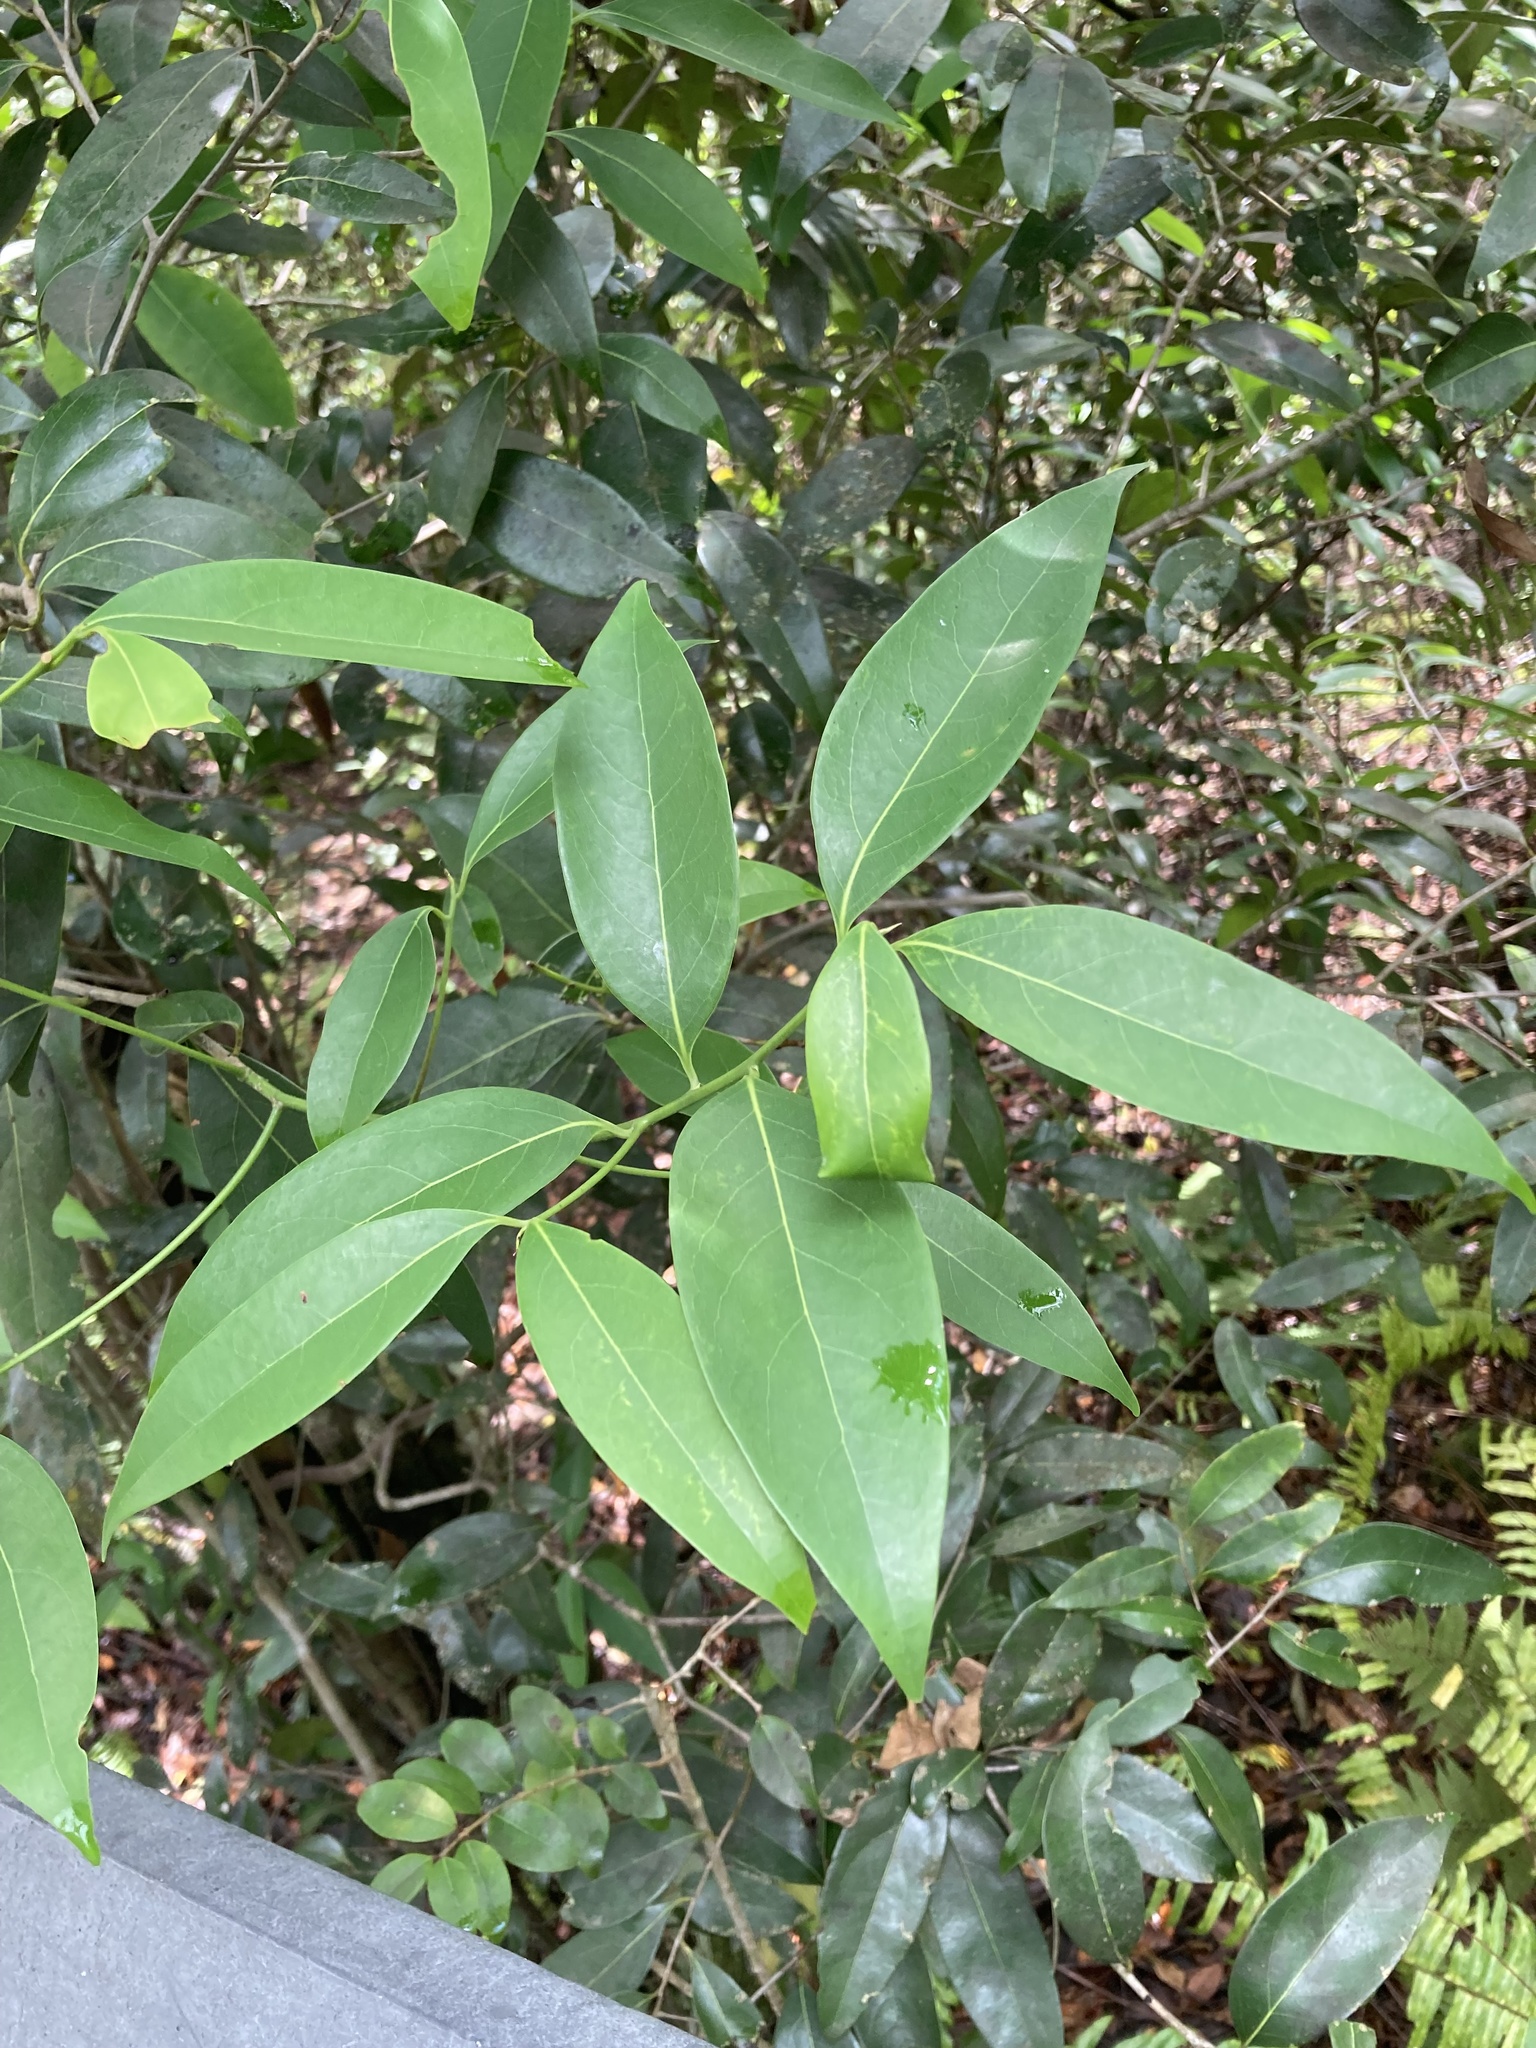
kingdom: Plantae
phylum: Tracheophyta
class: Magnoliopsida
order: Laurales
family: Lauraceae
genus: Damburneya
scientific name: Damburneya
